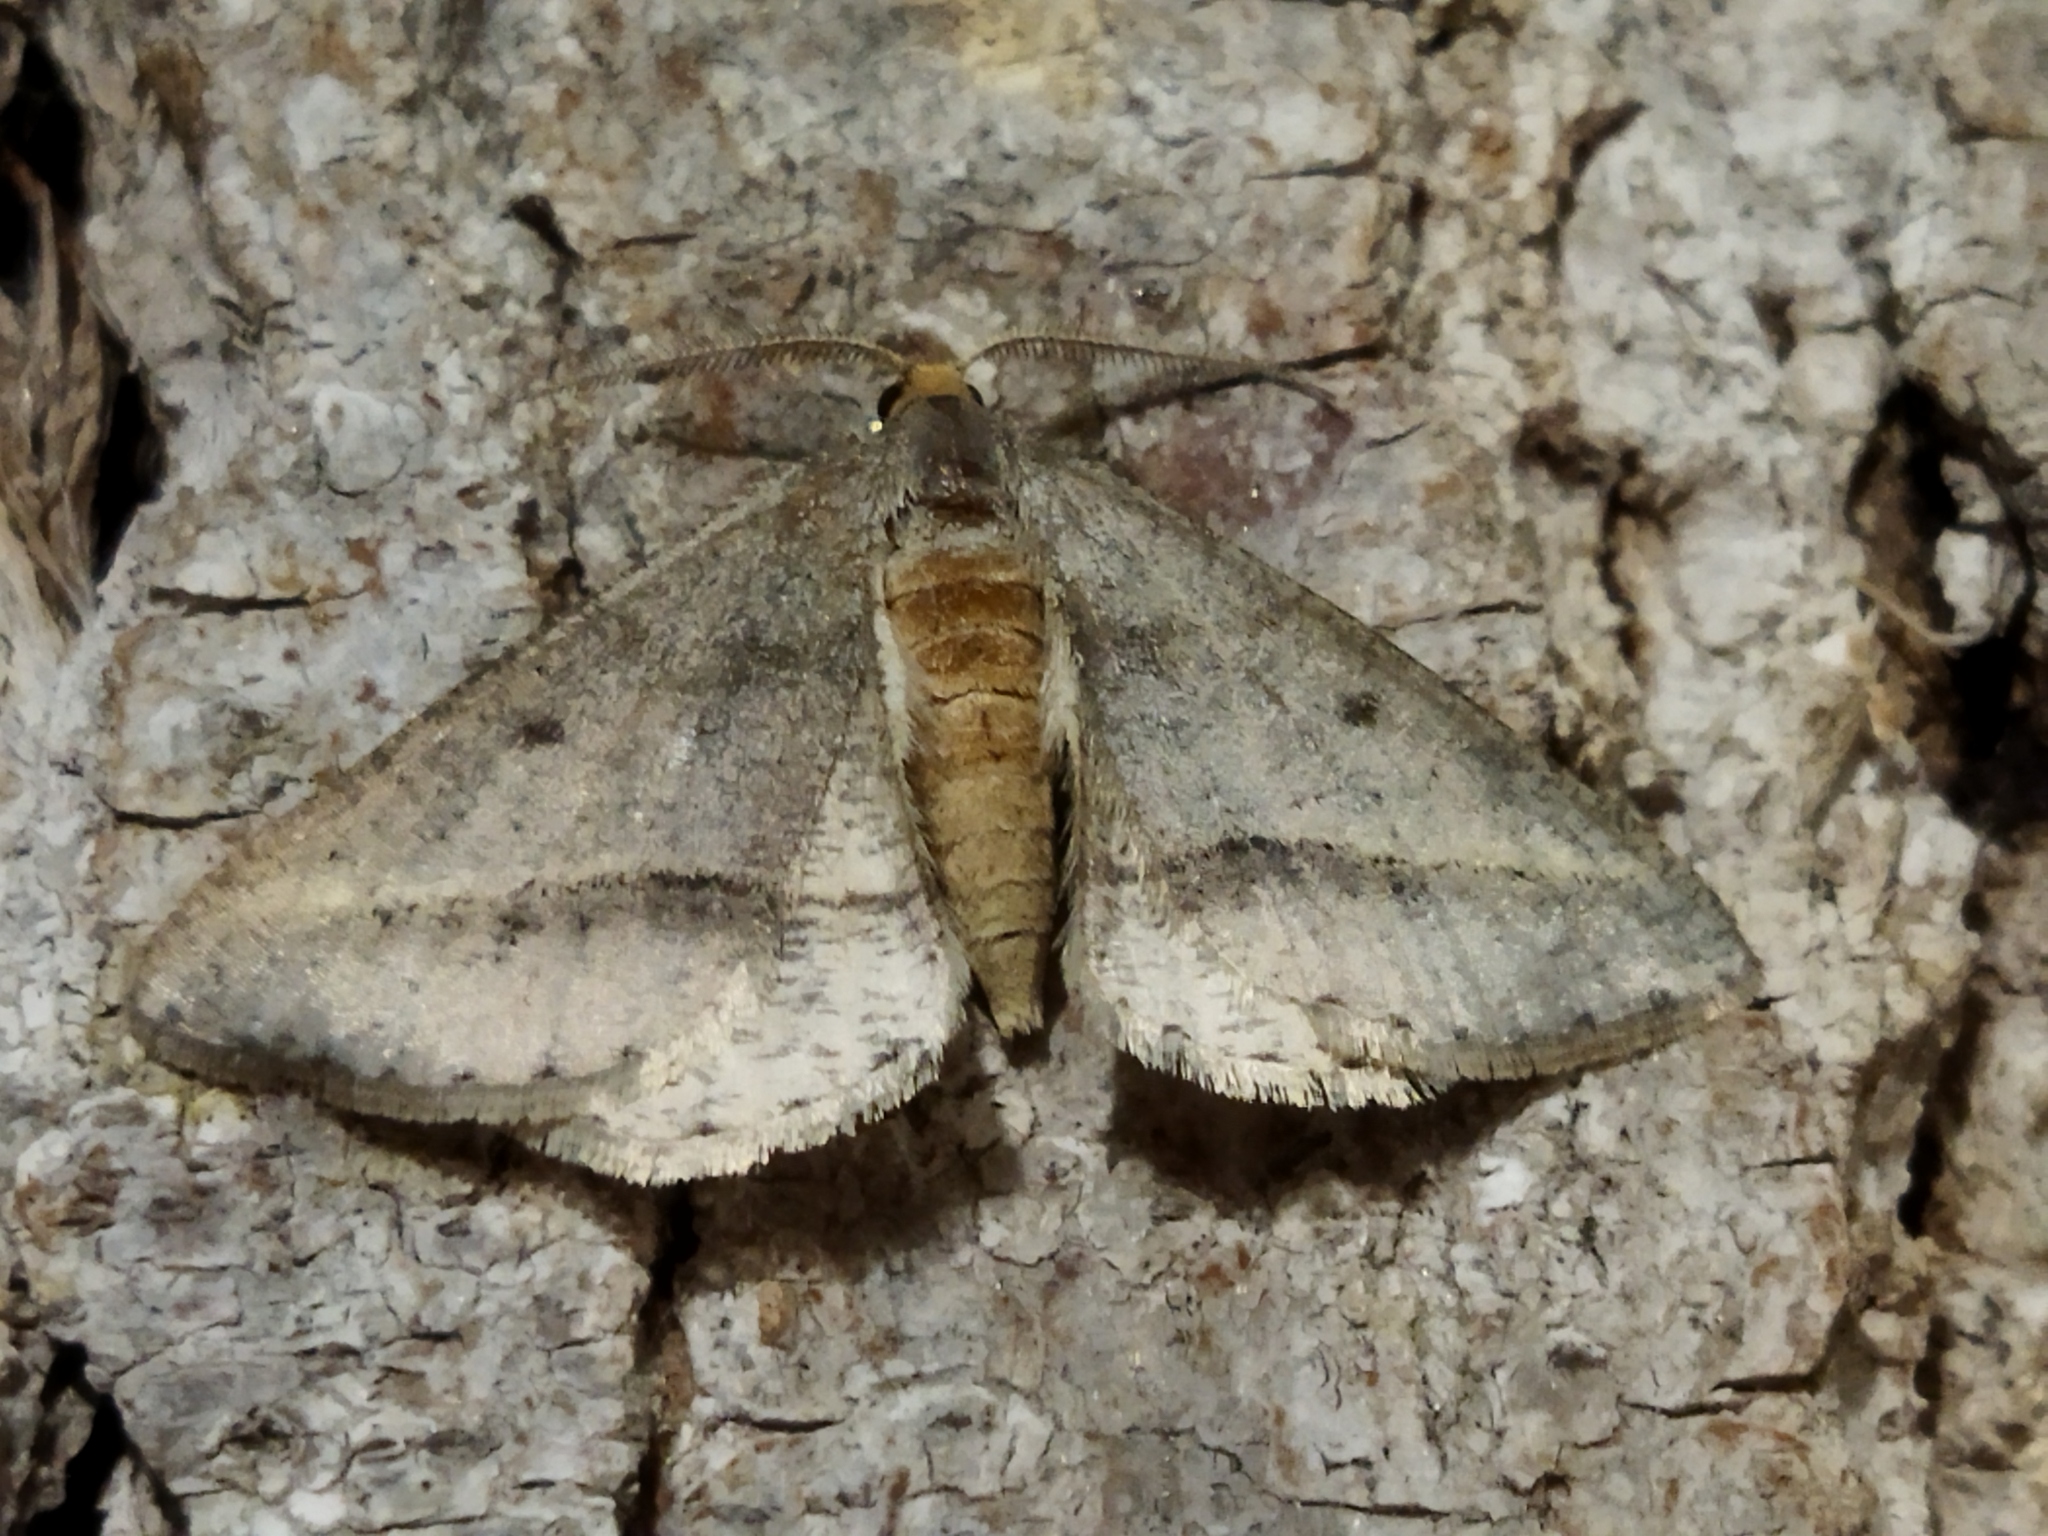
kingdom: Animalia
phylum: Arthropoda
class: Insecta
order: Lepidoptera
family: Geometridae
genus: Tephrina
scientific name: Tephrina arenacearia
